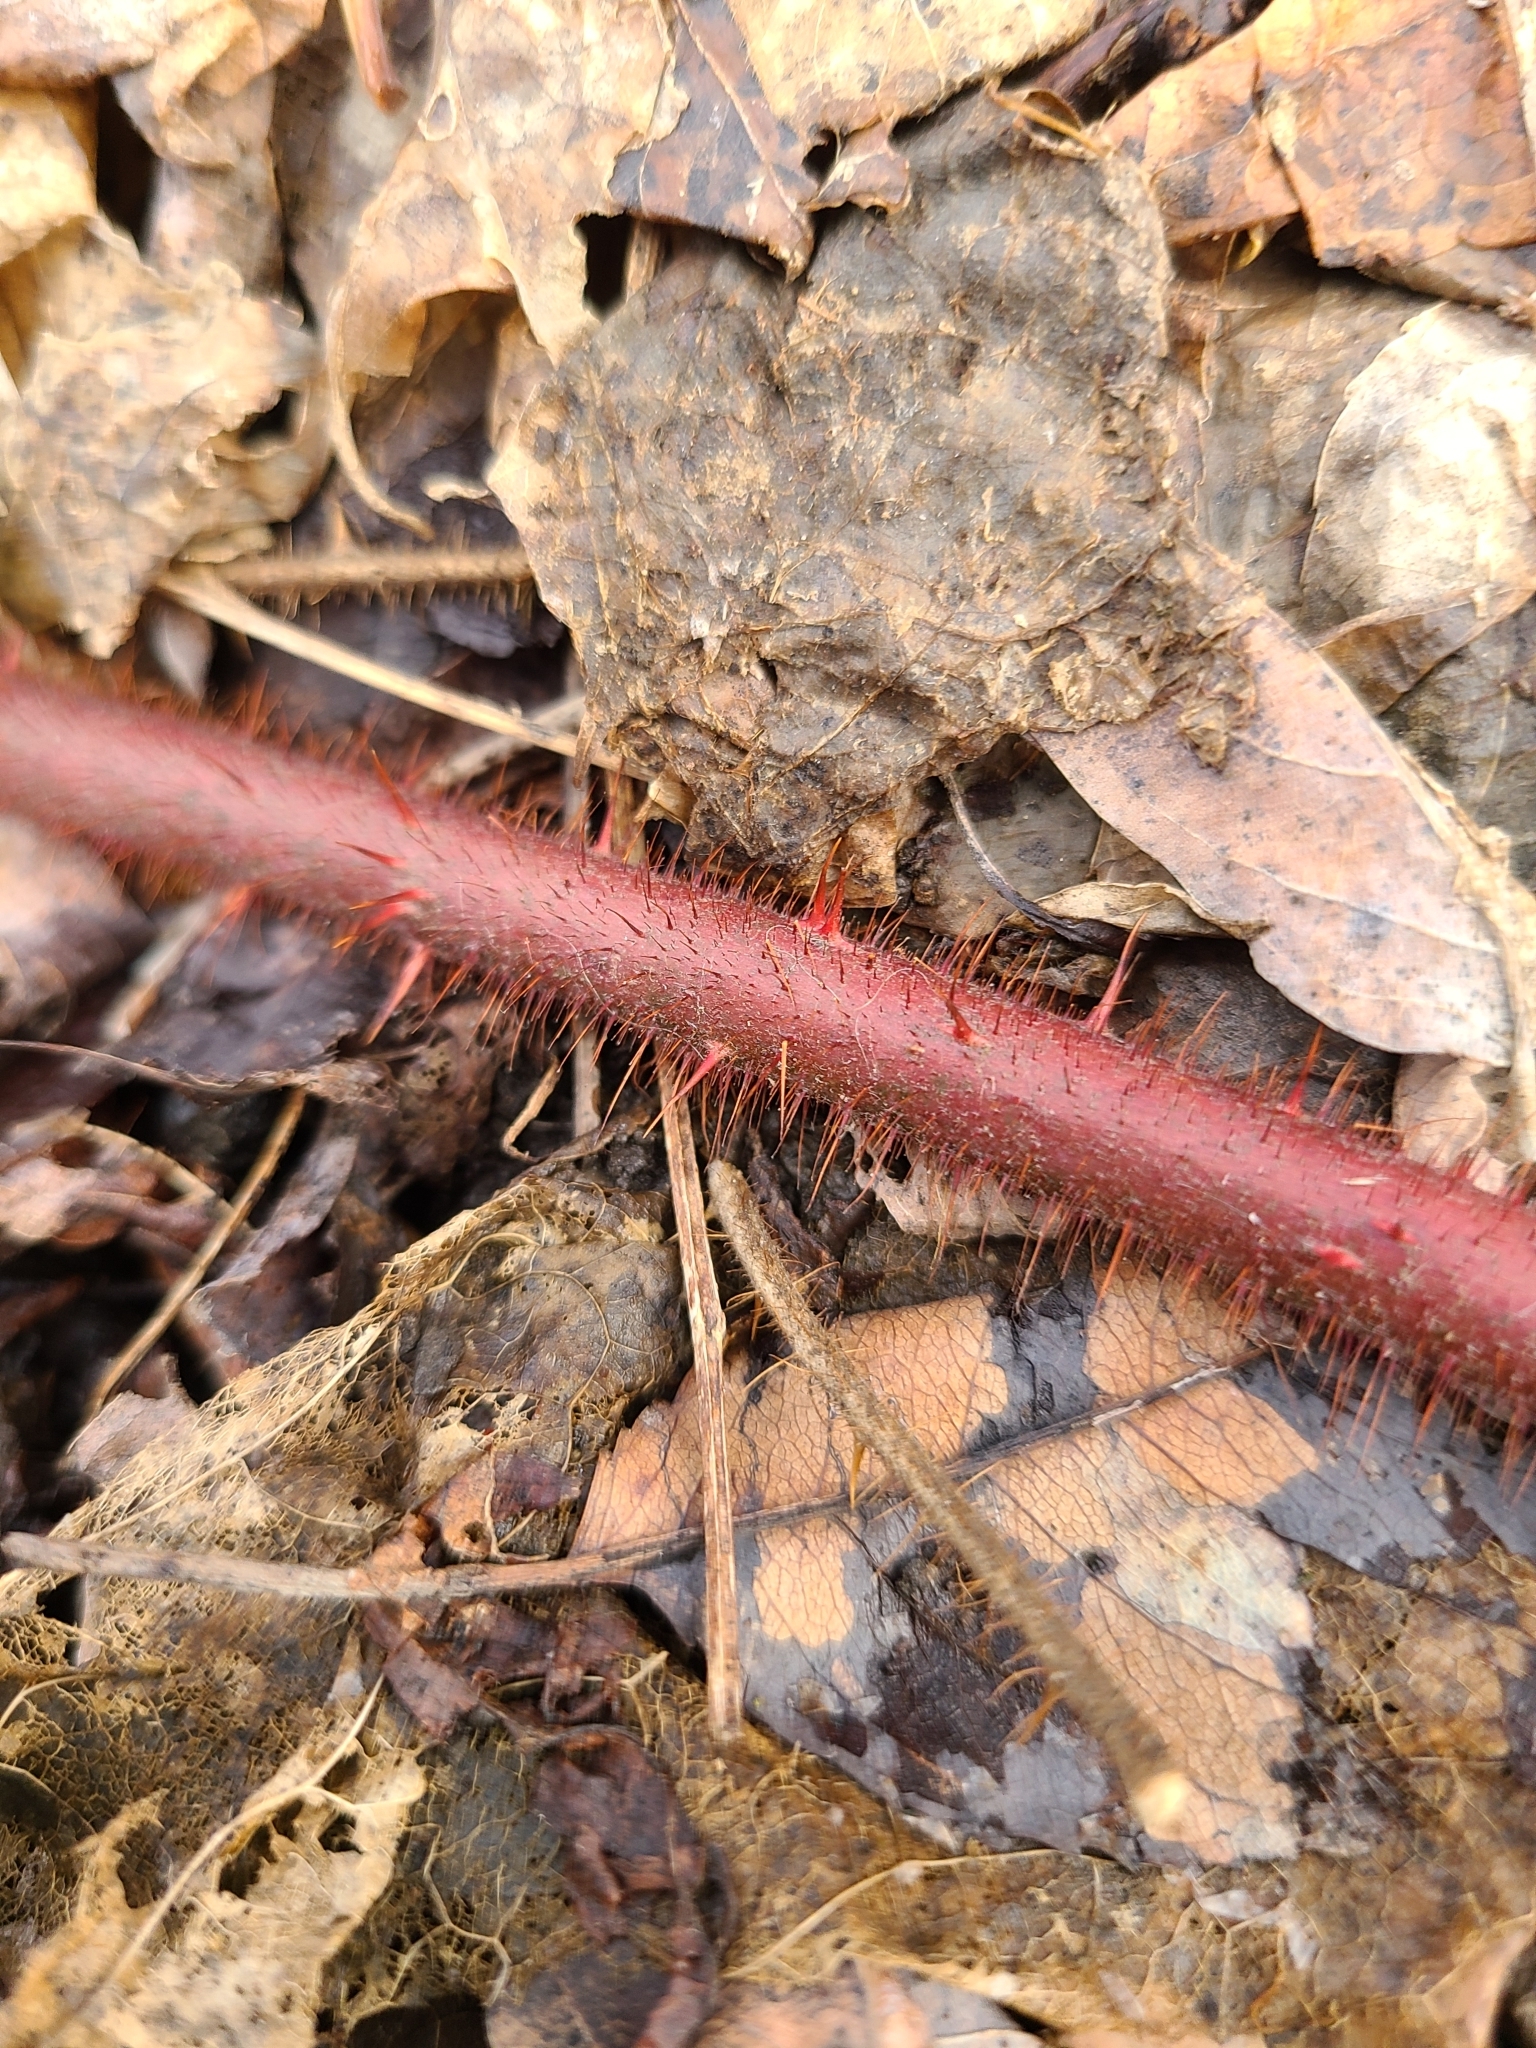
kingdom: Plantae
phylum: Tracheophyta
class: Magnoliopsida
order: Rosales
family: Rosaceae
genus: Rubus
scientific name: Rubus phoenicolasius
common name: Japanese wineberry
